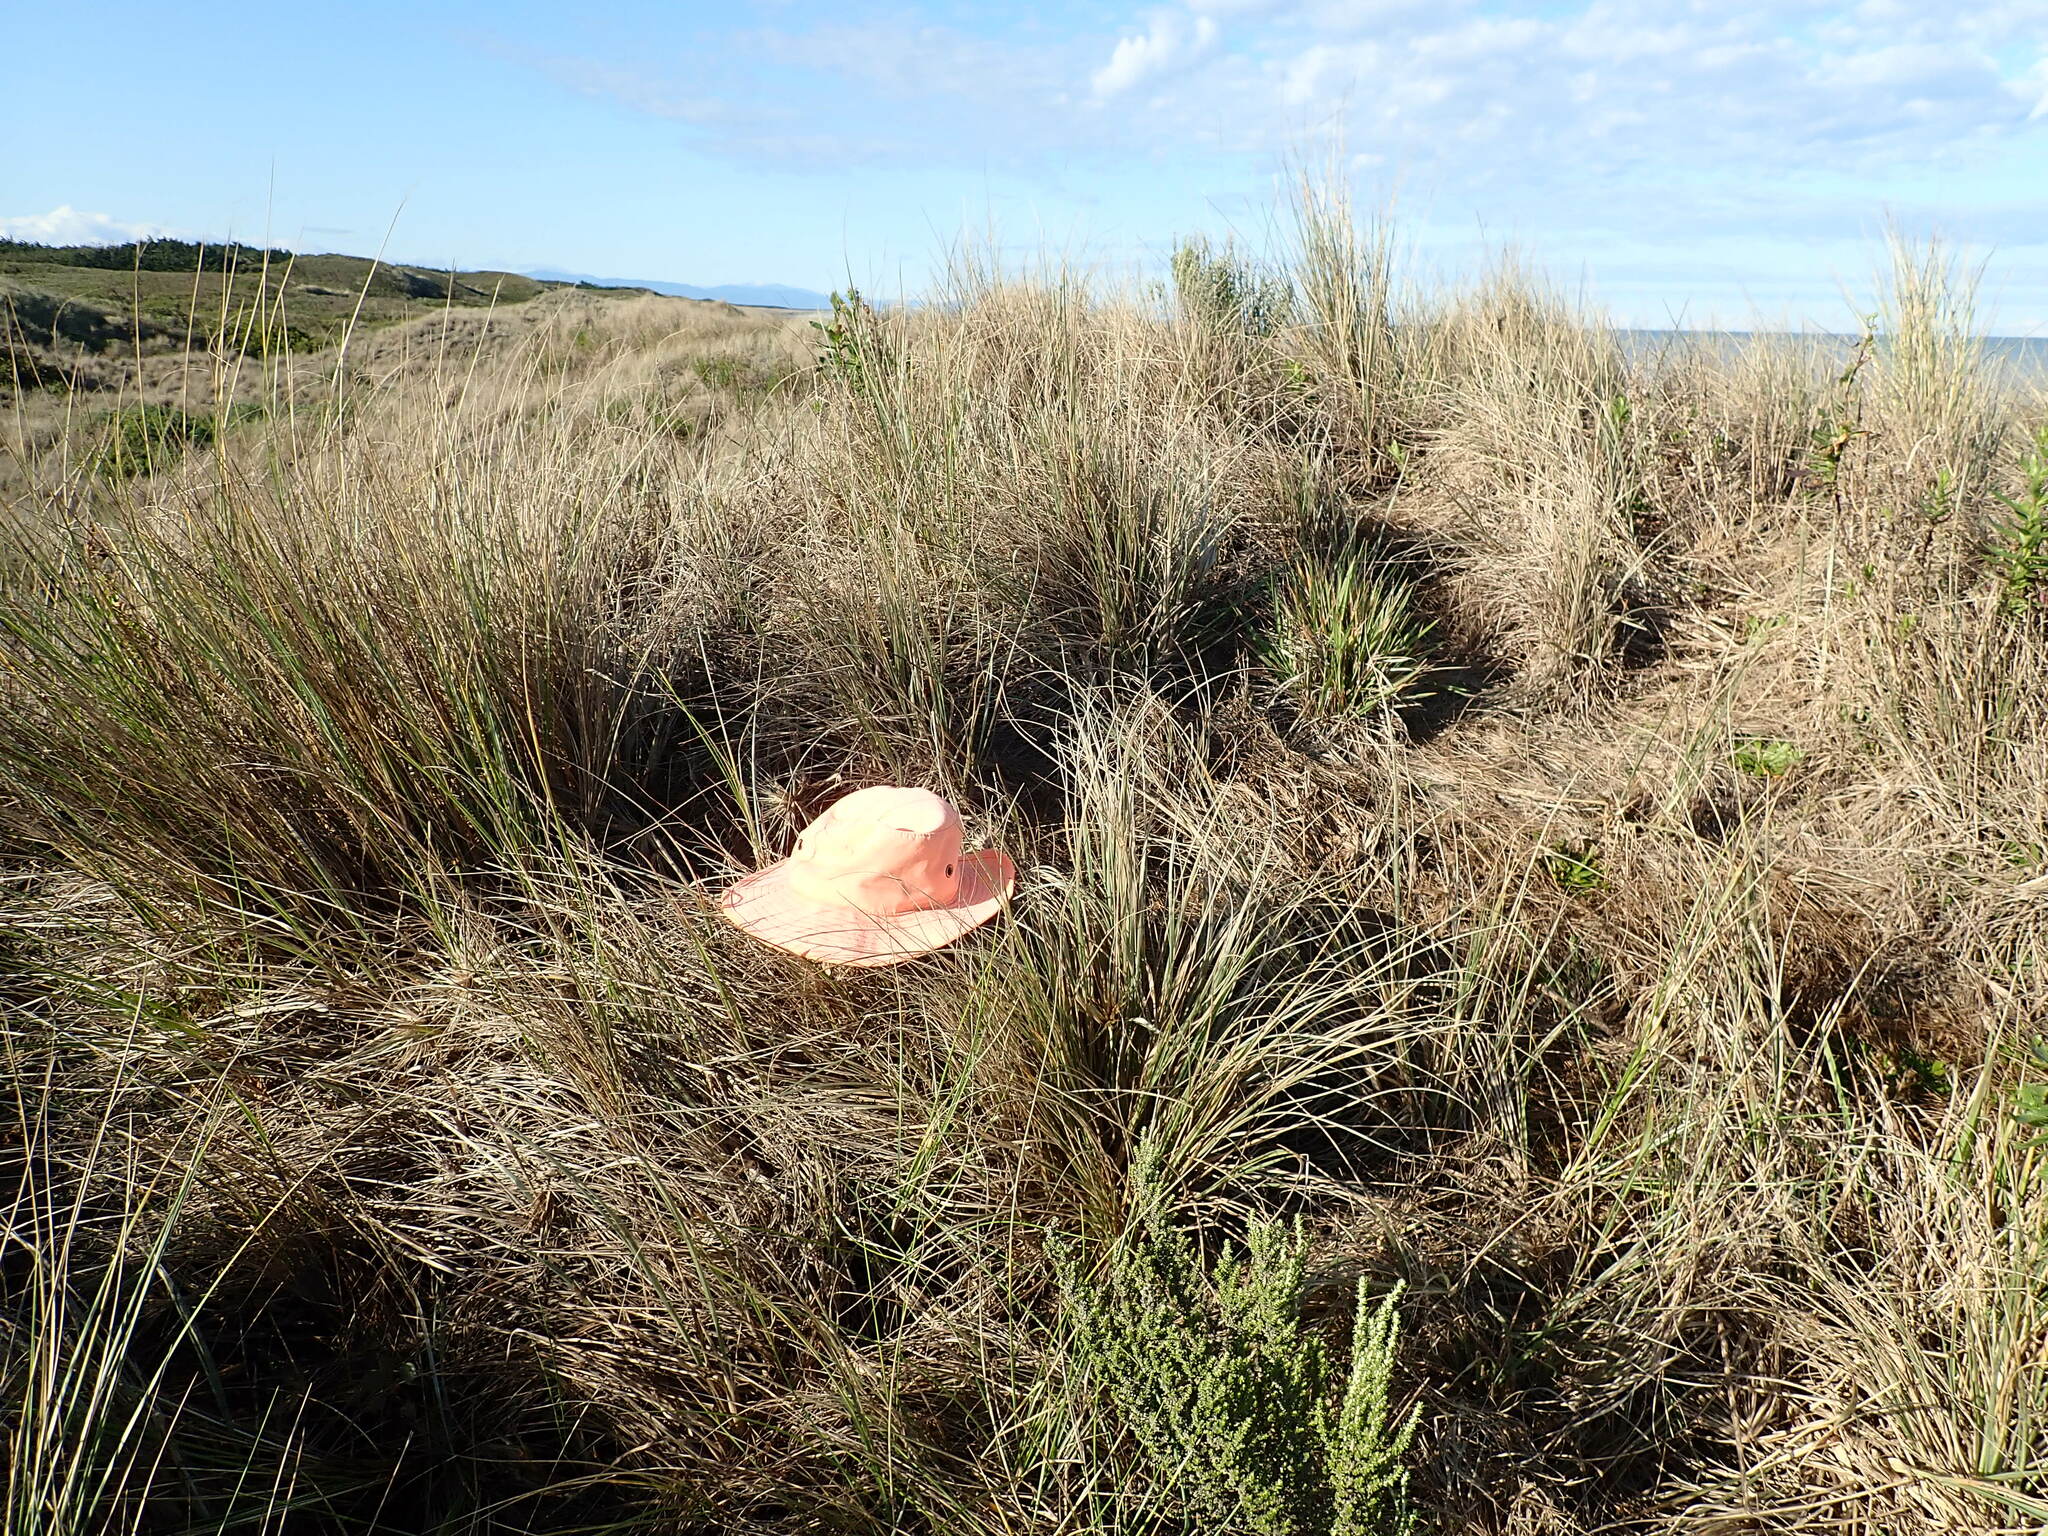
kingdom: Plantae
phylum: Tracheophyta
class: Liliopsida
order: Poales
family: Poaceae
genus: Spinifex
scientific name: Spinifex sericeus
